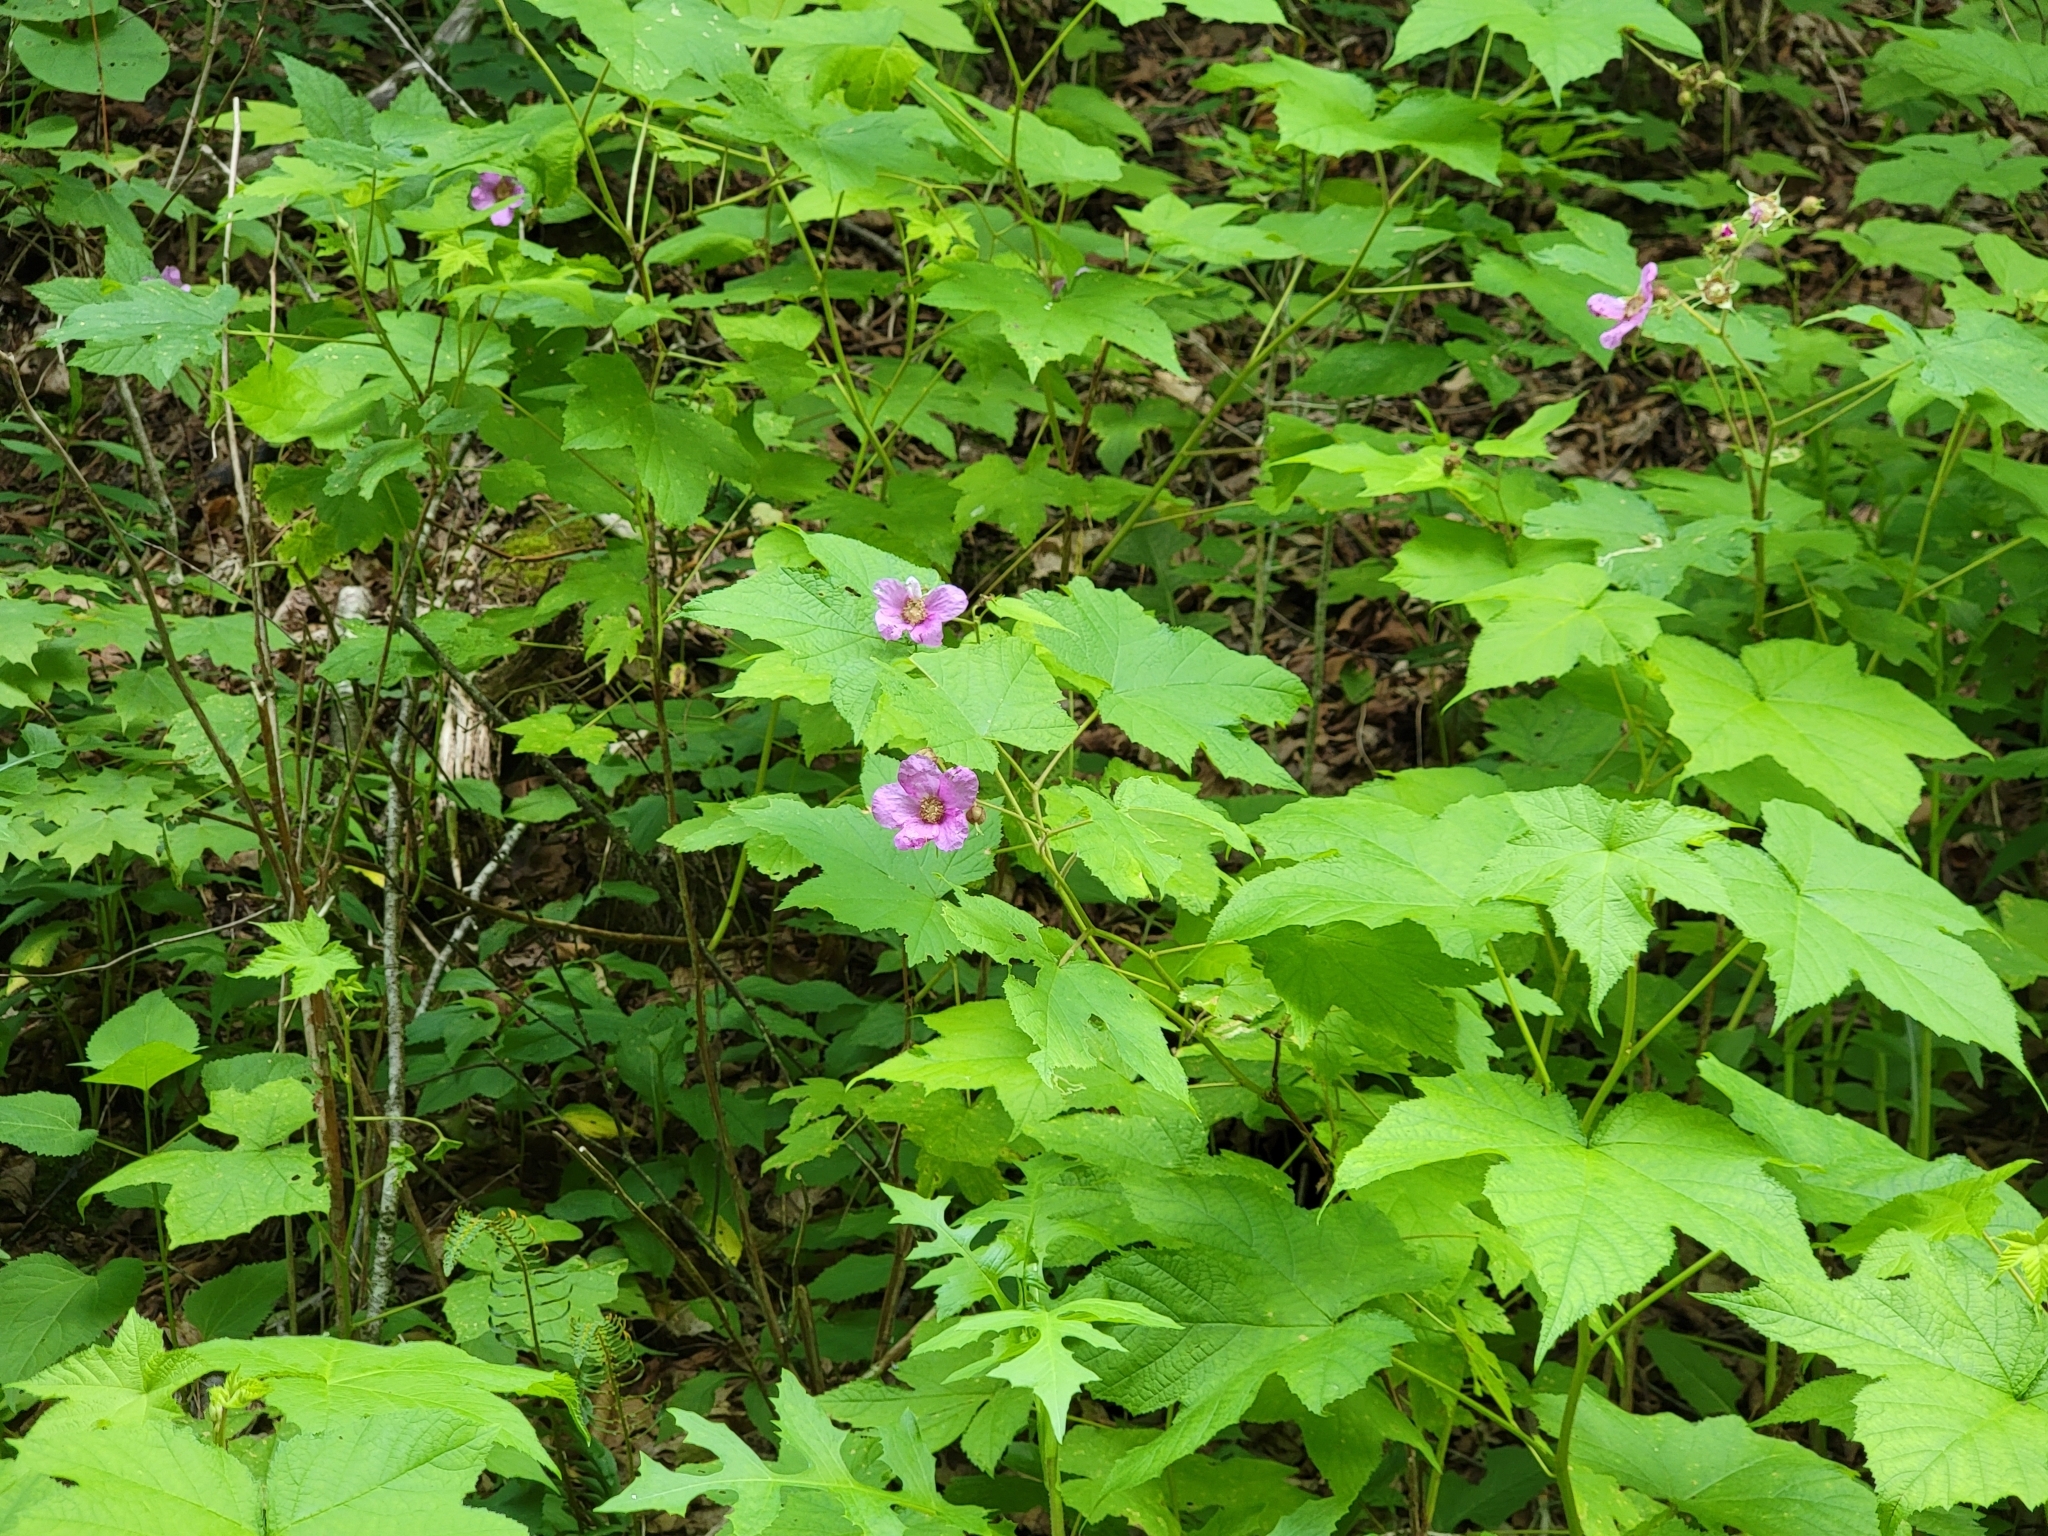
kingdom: Plantae
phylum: Tracheophyta
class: Magnoliopsida
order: Rosales
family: Rosaceae
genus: Rubus
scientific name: Rubus odoratus
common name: Purple-flowered raspberry
